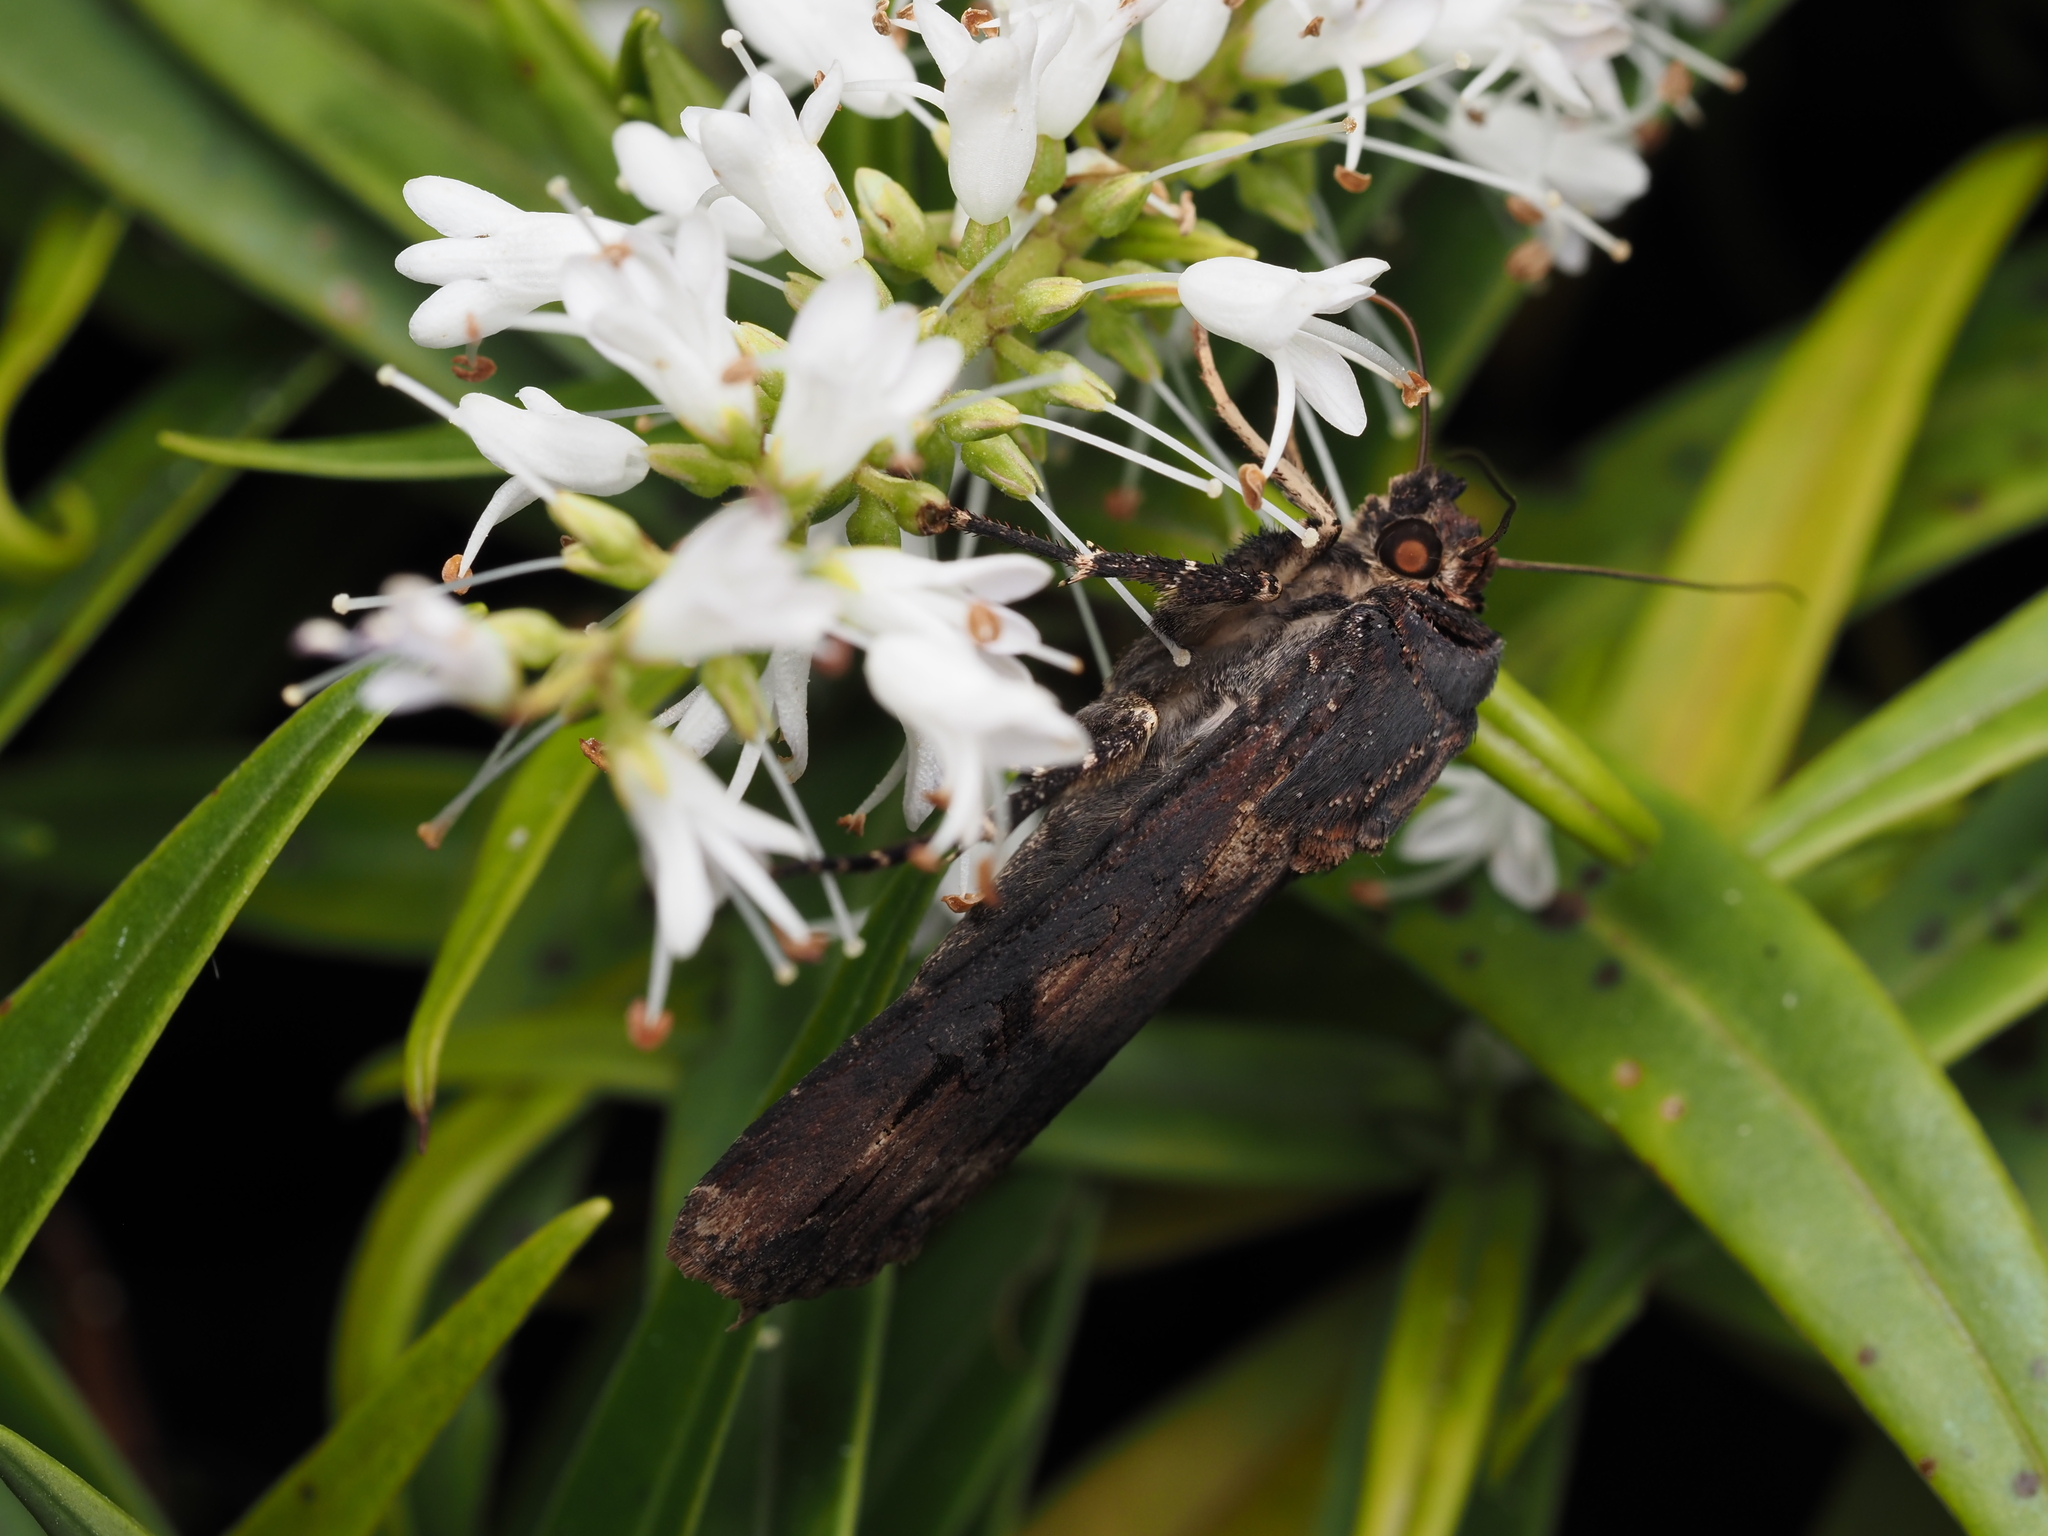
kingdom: Animalia
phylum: Arthropoda
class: Insecta
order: Lepidoptera
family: Noctuidae
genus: Agrotis
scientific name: Agrotis ipsilon
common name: Dark sword-grass
